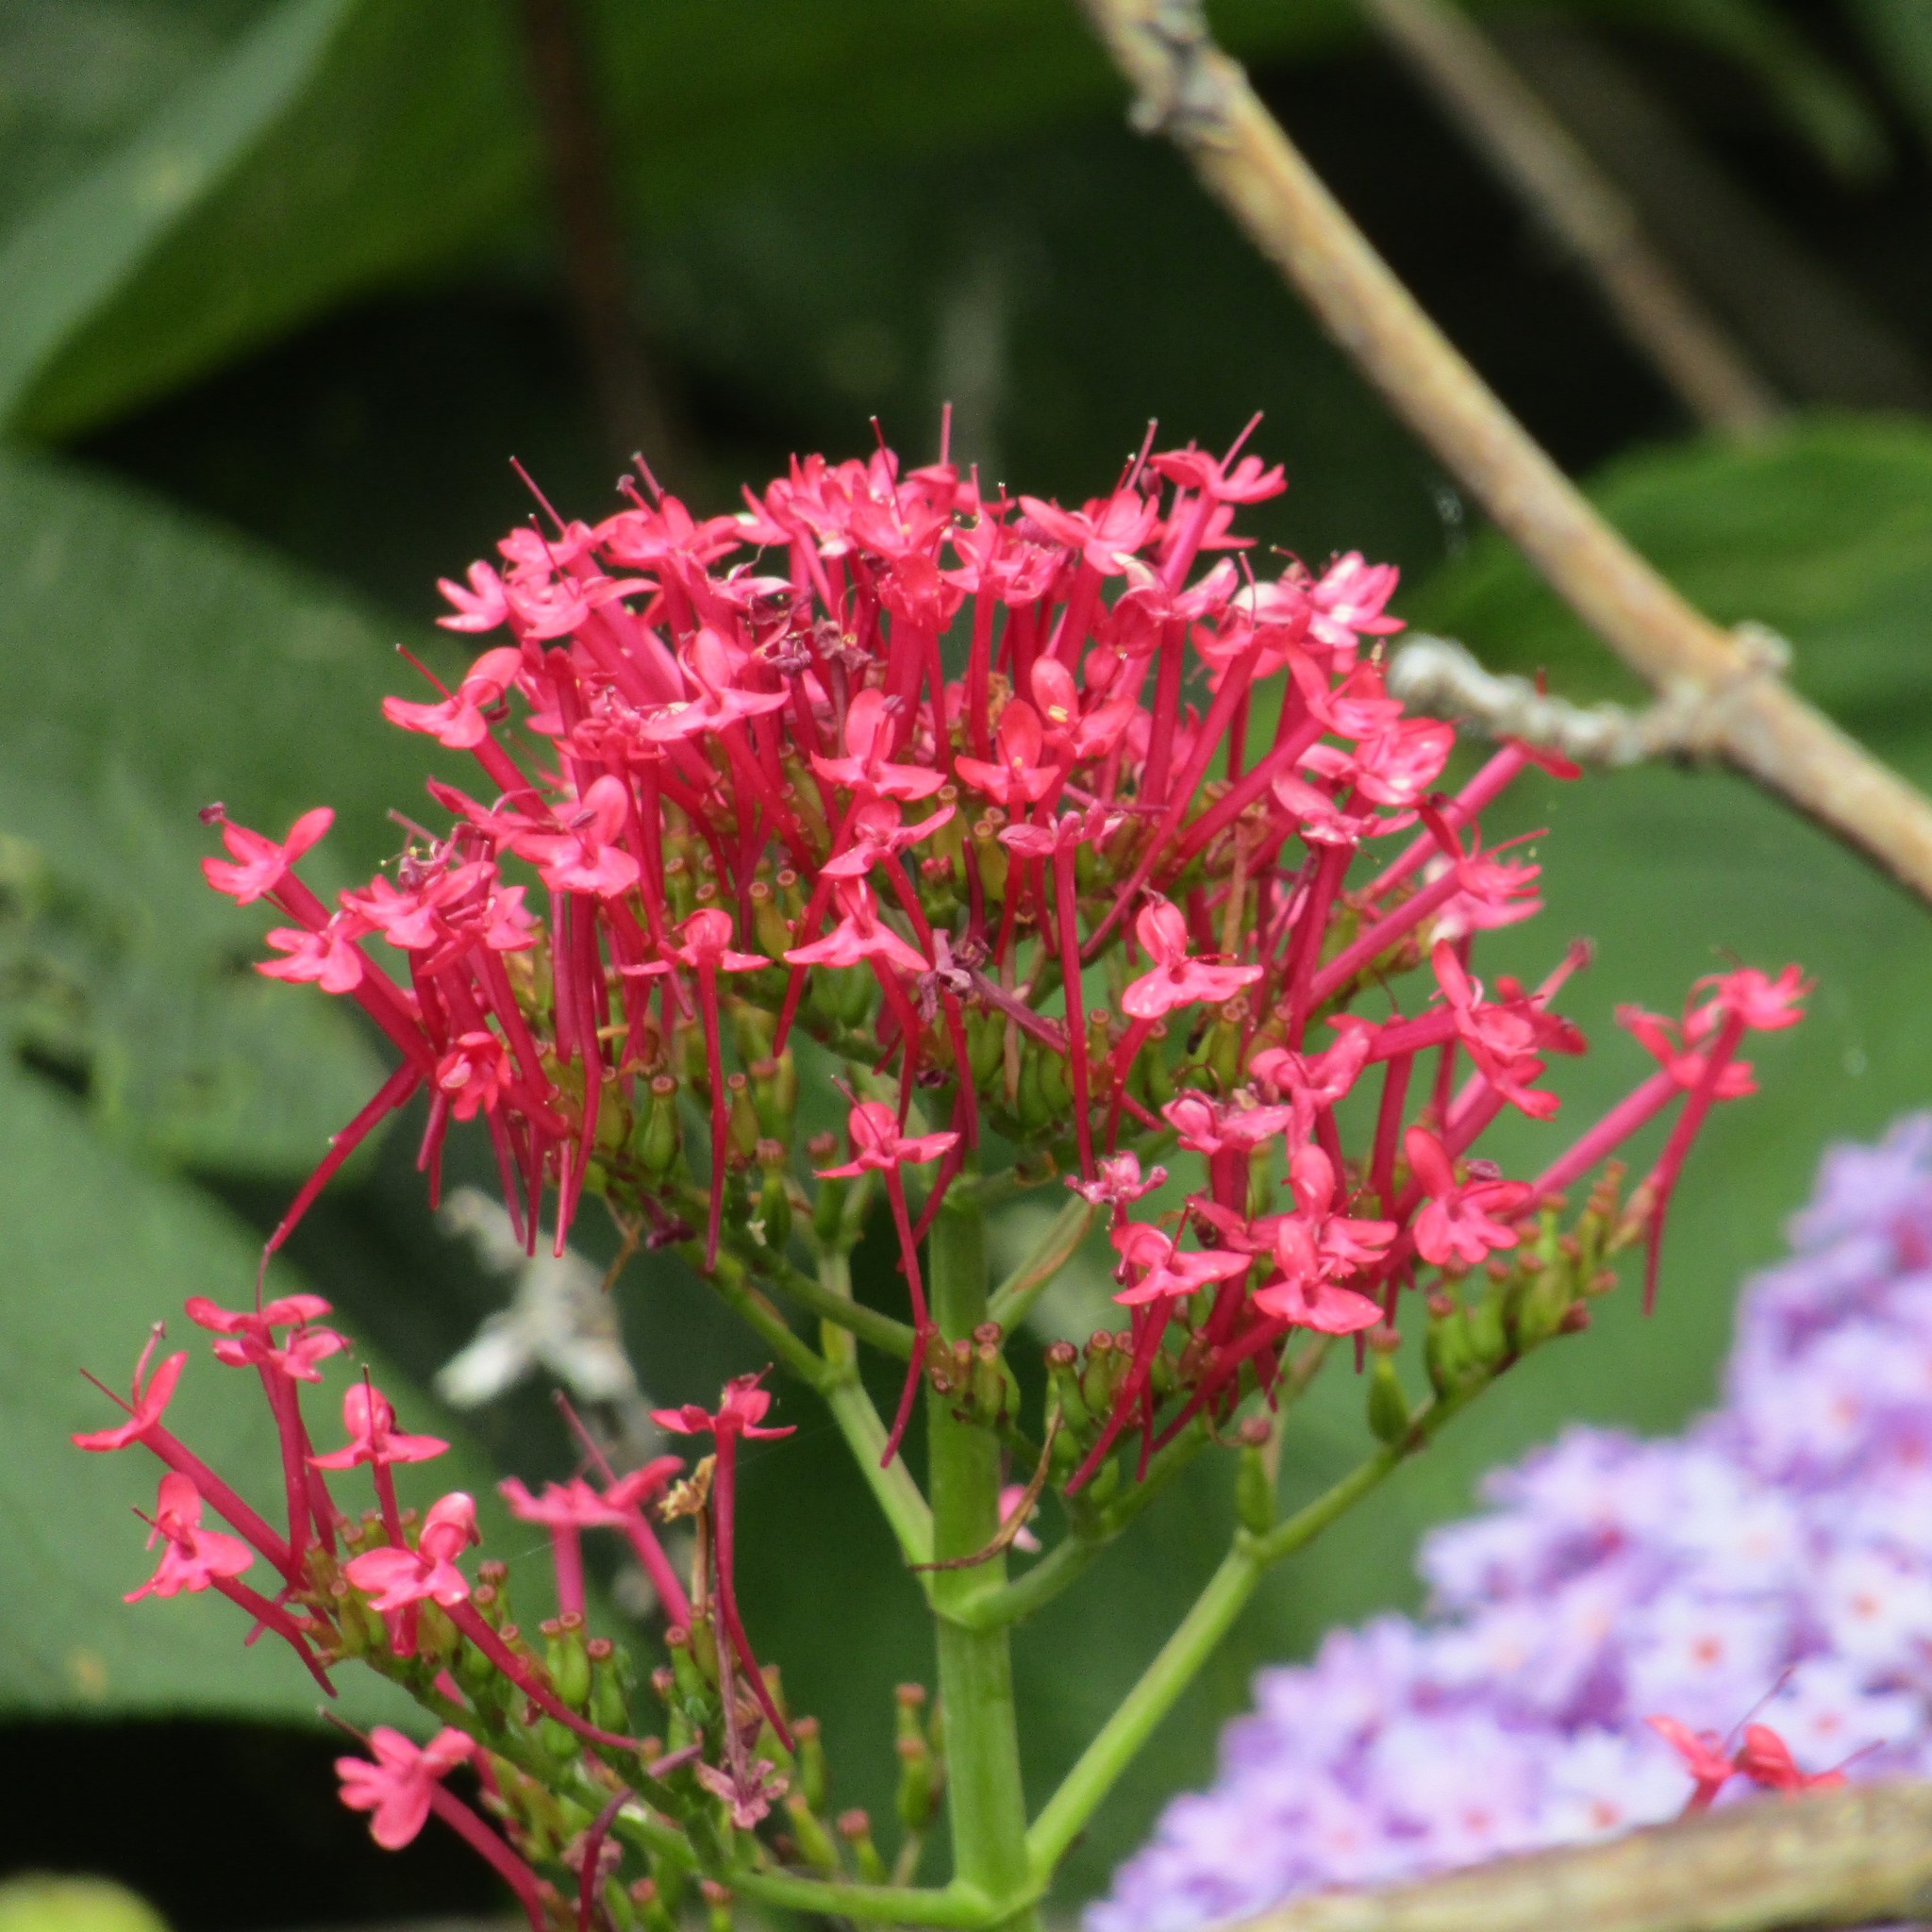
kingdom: Plantae
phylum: Tracheophyta
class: Magnoliopsida
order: Dipsacales
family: Caprifoliaceae
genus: Centranthus
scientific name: Centranthus ruber
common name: Red valerian
